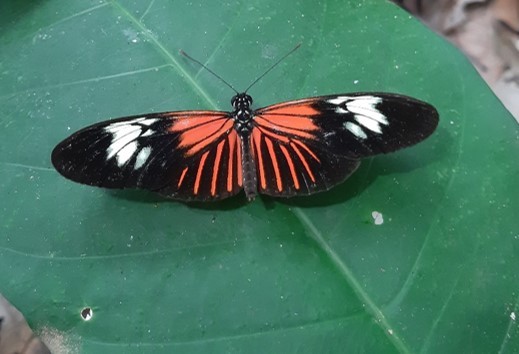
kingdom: Animalia
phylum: Arthropoda
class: Insecta
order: Lepidoptera
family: Nymphalidae
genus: Heliconius
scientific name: Heliconius eratosignis
